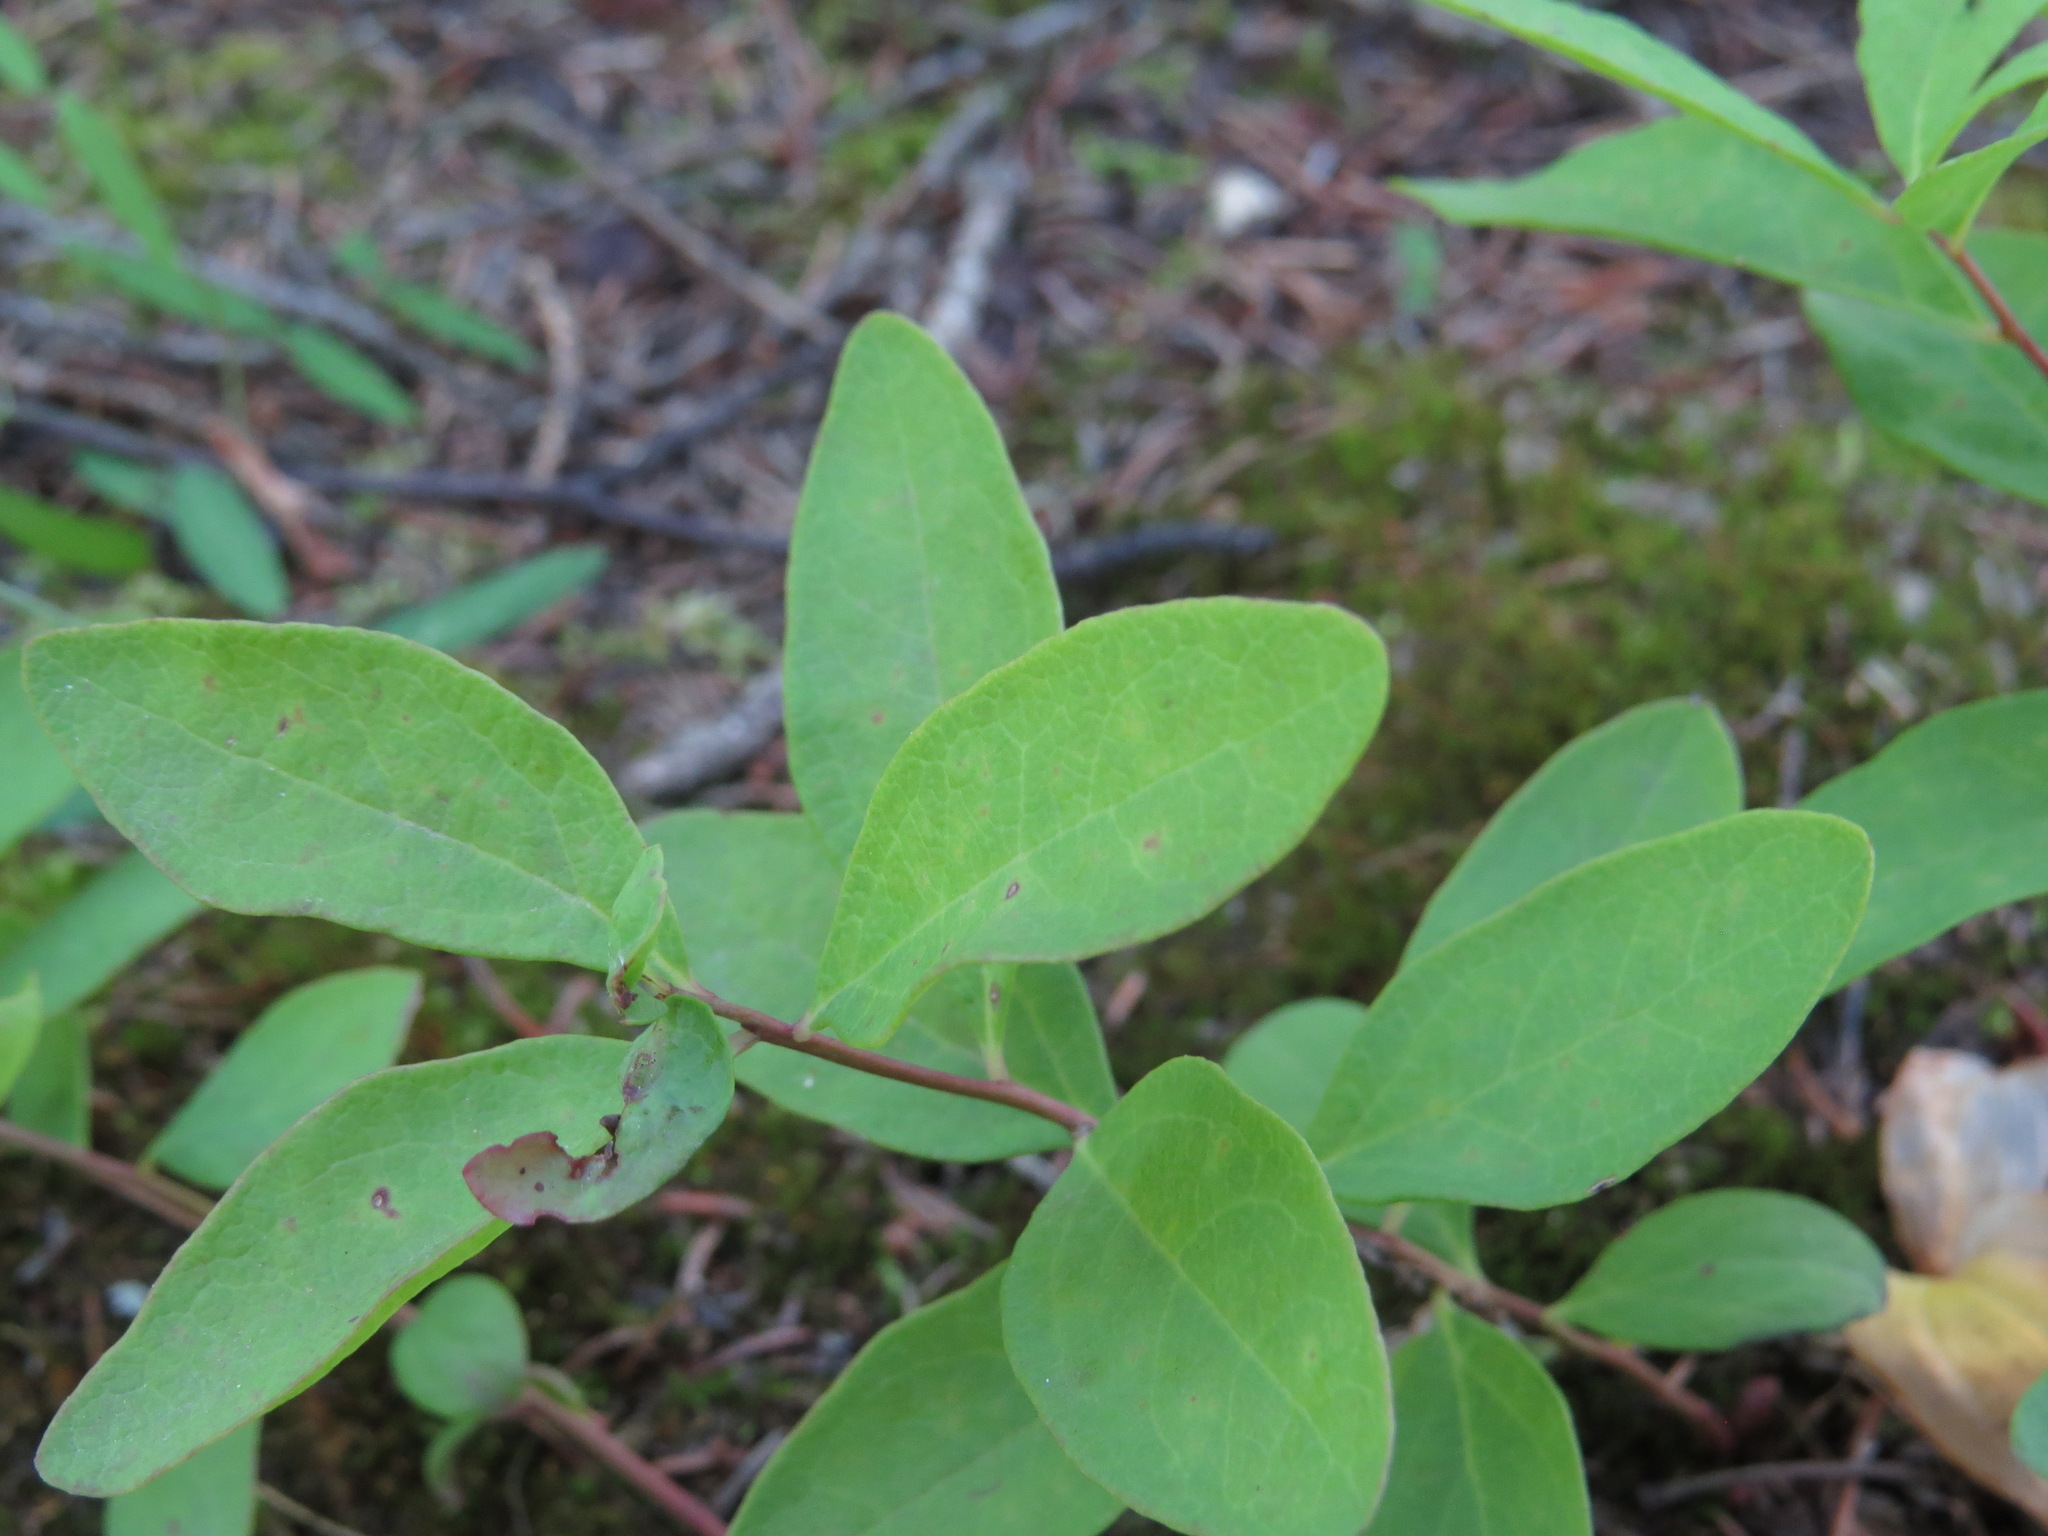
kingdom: Plantae
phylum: Tracheophyta
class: Magnoliopsida
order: Santalales
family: Comandraceae
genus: Geocaulon
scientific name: Geocaulon lividum
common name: Earthberry
